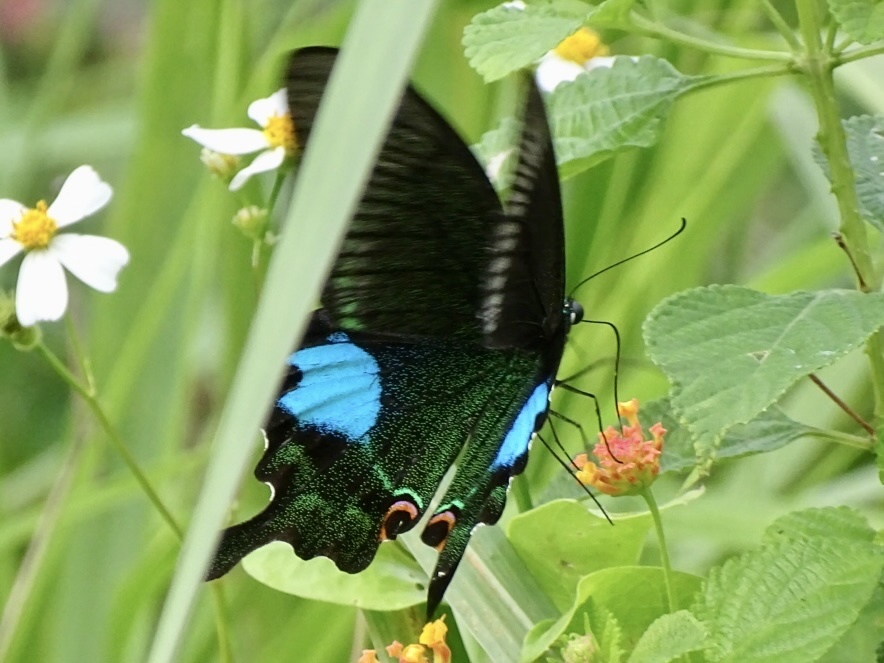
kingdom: Animalia
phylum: Arthropoda
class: Insecta
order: Lepidoptera
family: Papilionidae
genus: Papilio
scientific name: Papilio paris
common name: Paris peacock
